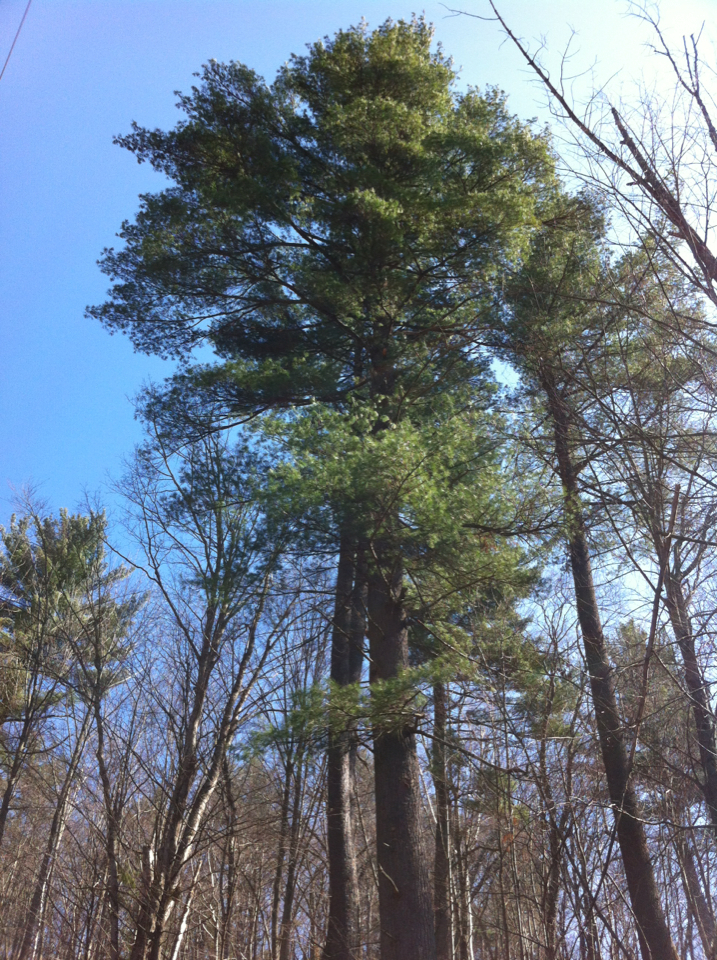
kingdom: Plantae
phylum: Tracheophyta
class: Pinopsida
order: Pinales
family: Pinaceae
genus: Pinus
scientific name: Pinus strobus
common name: Weymouth pine
